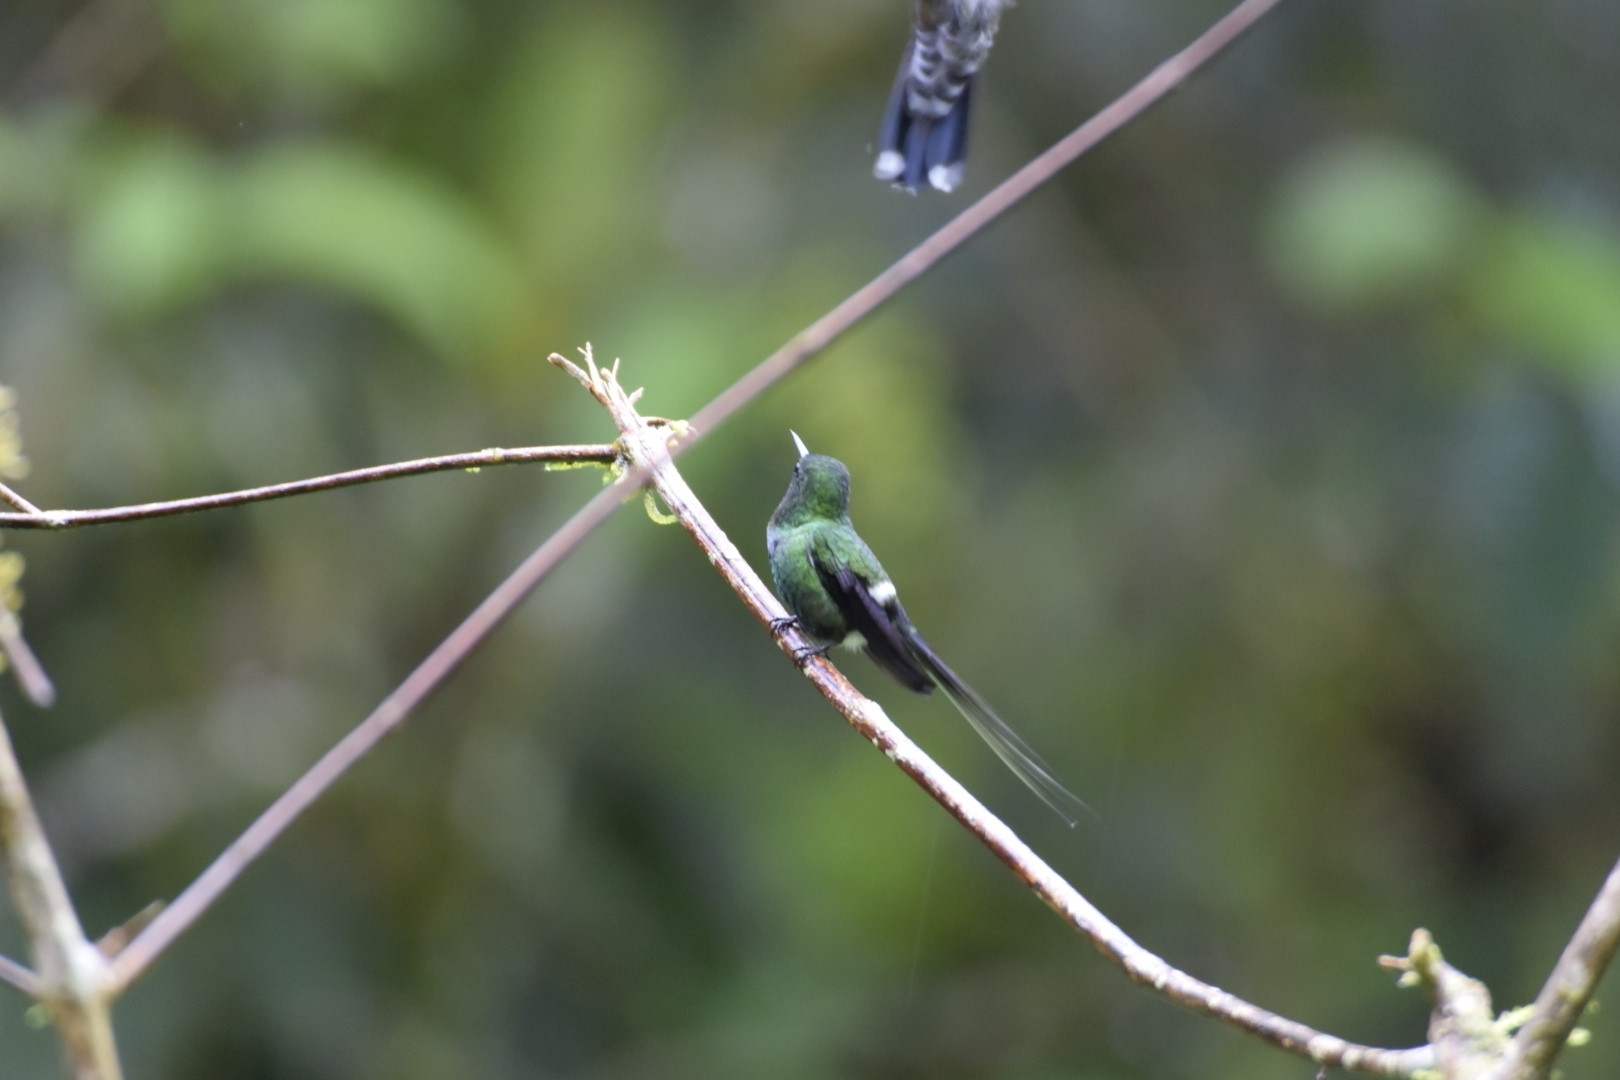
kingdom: Animalia
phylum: Chordata
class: Aves
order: Apodiformes
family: Trochilidae
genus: Discosura
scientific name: Discosura conversii
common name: Green thorntail
